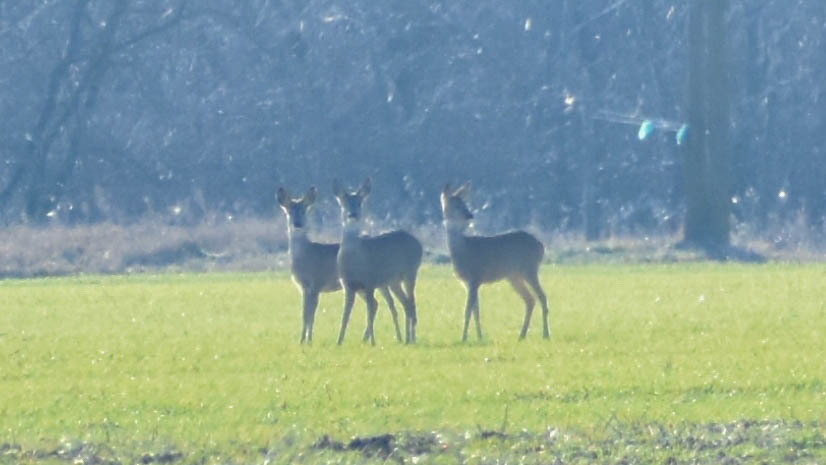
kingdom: Animalia
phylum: Chordata
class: Mammalia
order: Artiodactyla
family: Cervidae
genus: Capreolus
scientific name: Capreolus capreolus
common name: Western roe deer
